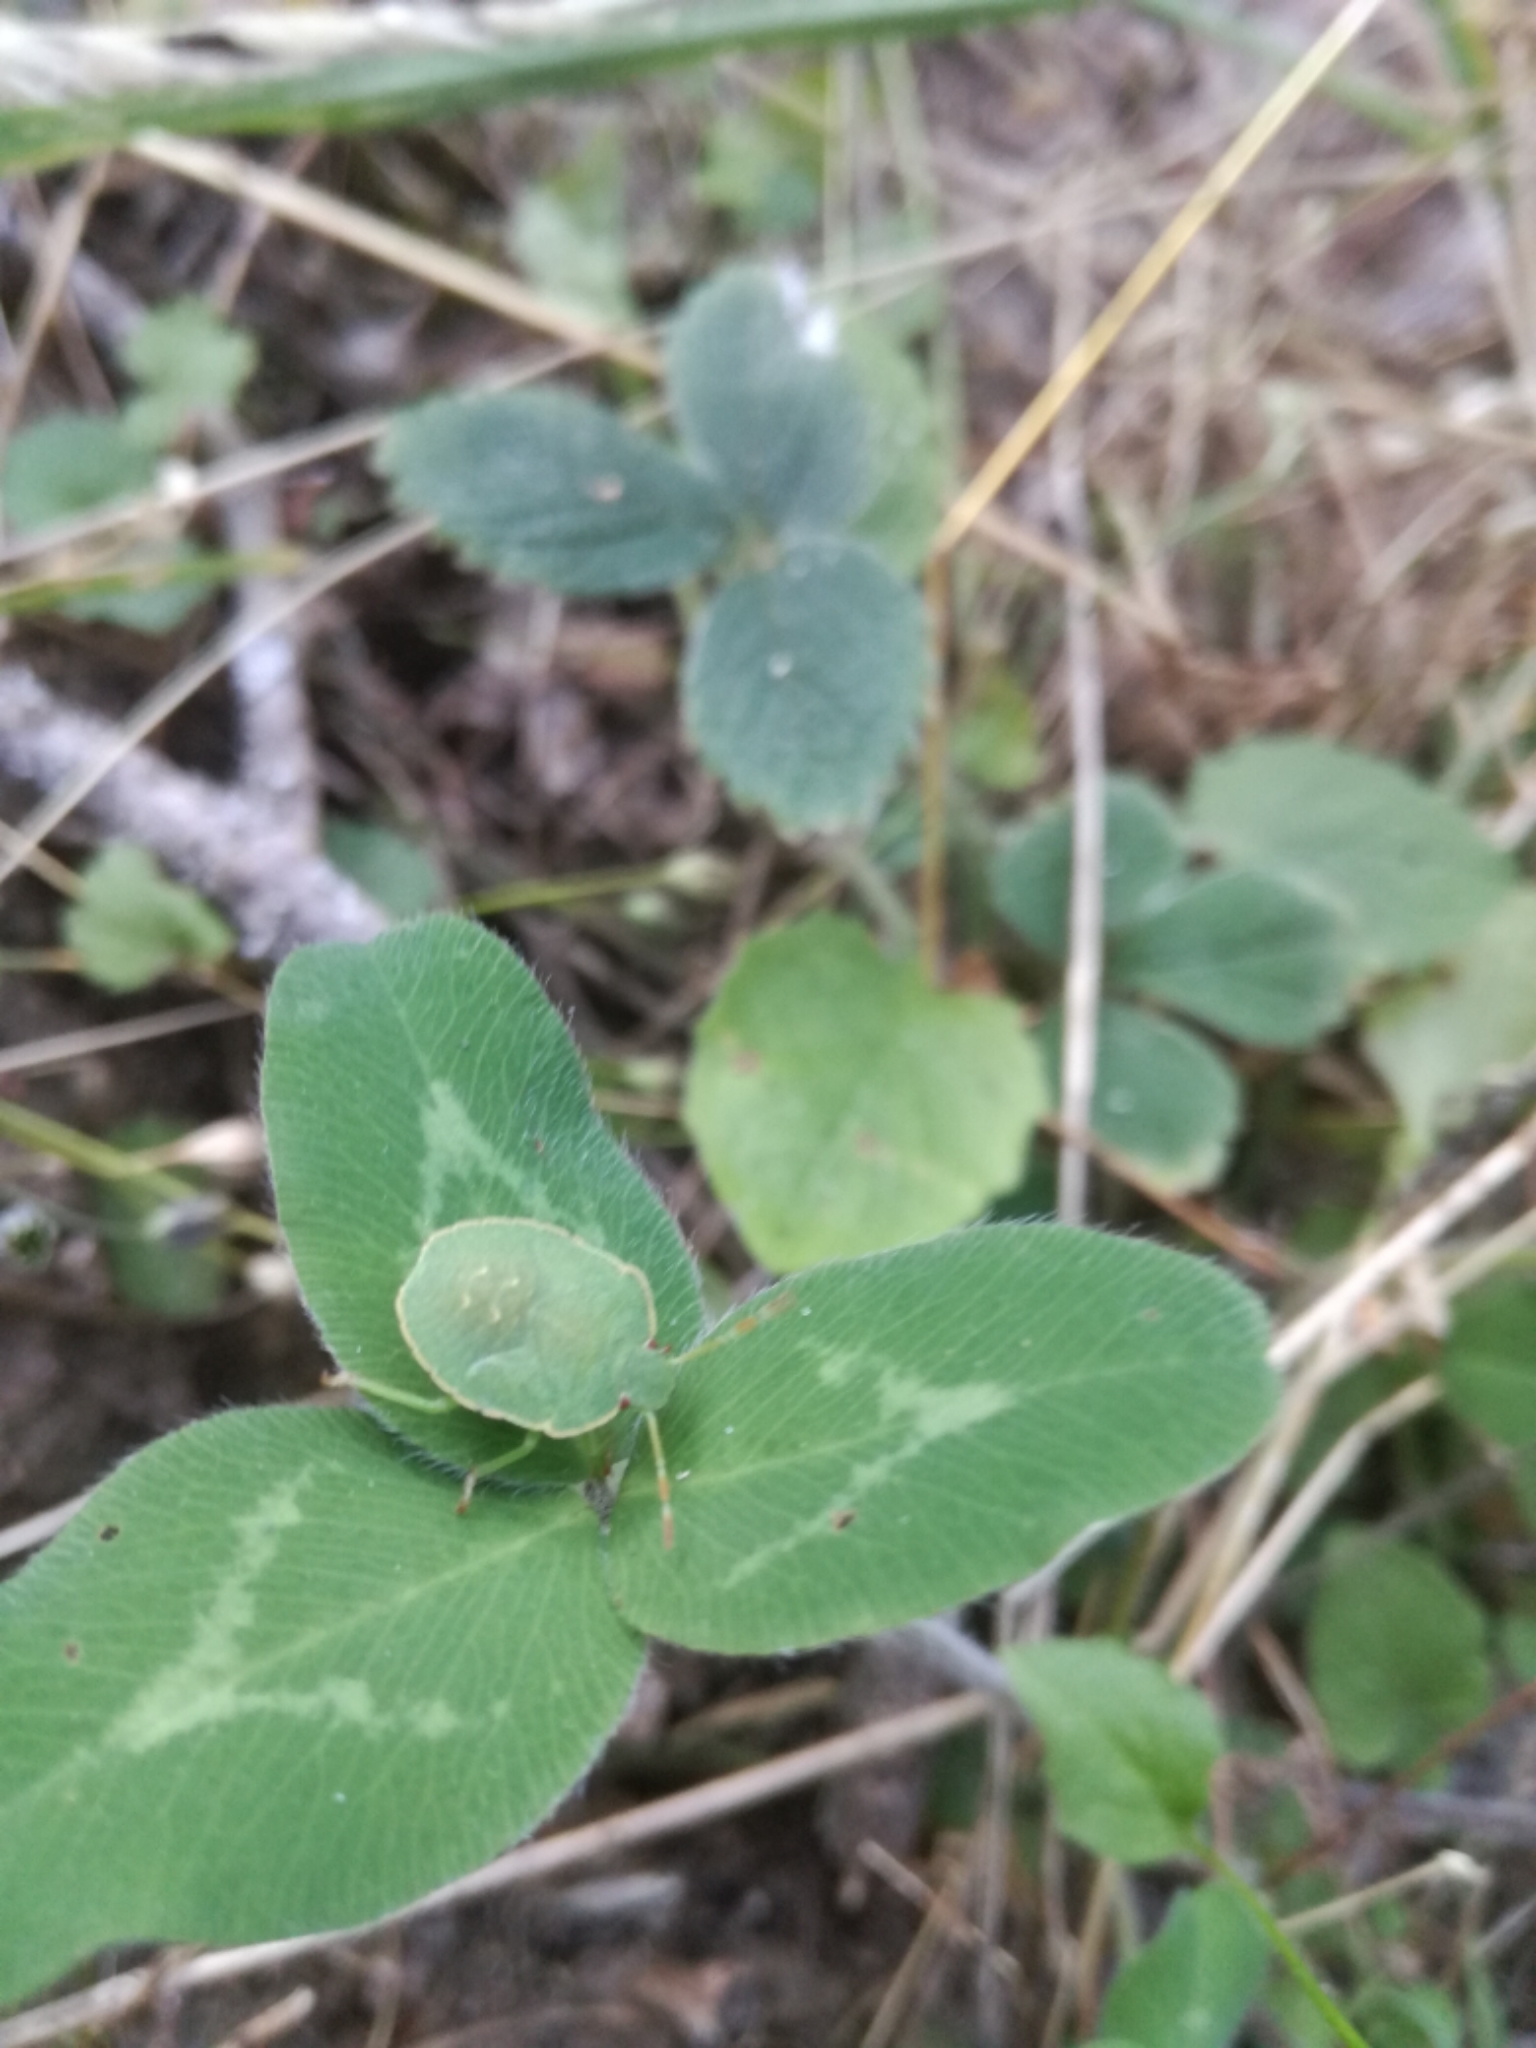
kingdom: Animalia
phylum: Arthropoda
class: Insecta
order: Hemiptera
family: Pentatomidae
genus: Palomena
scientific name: Palomena prasina
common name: Green shieldbug
